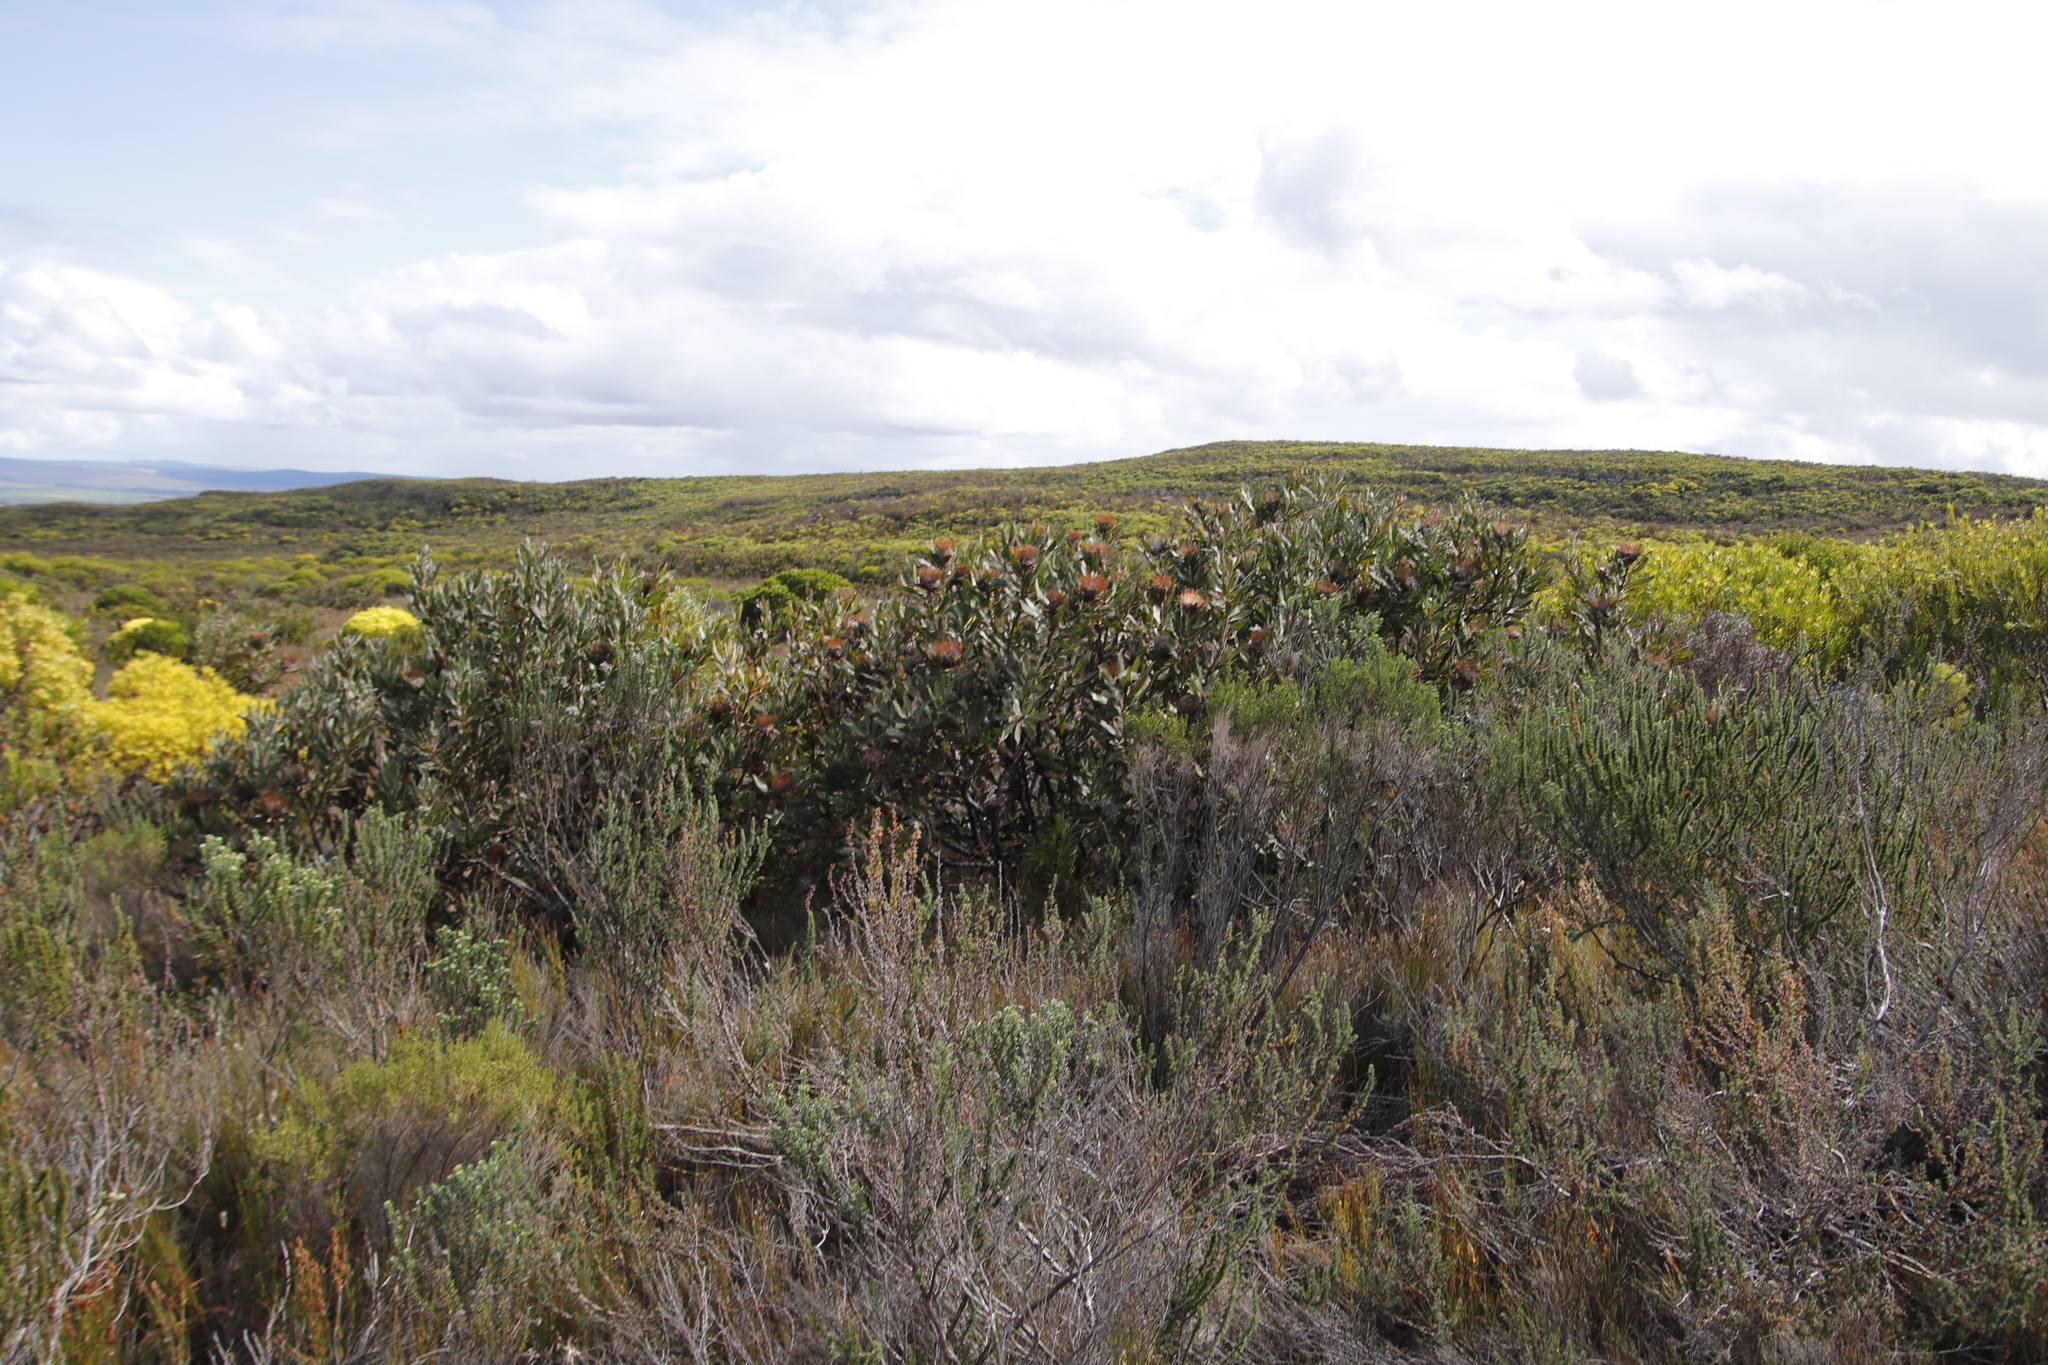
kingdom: Plantae
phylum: Tracheophyta
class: Magnoliopsida
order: Proteales
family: Proteaceae
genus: Protea
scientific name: Protea susannae
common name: Foetid-leaf sugarbush
